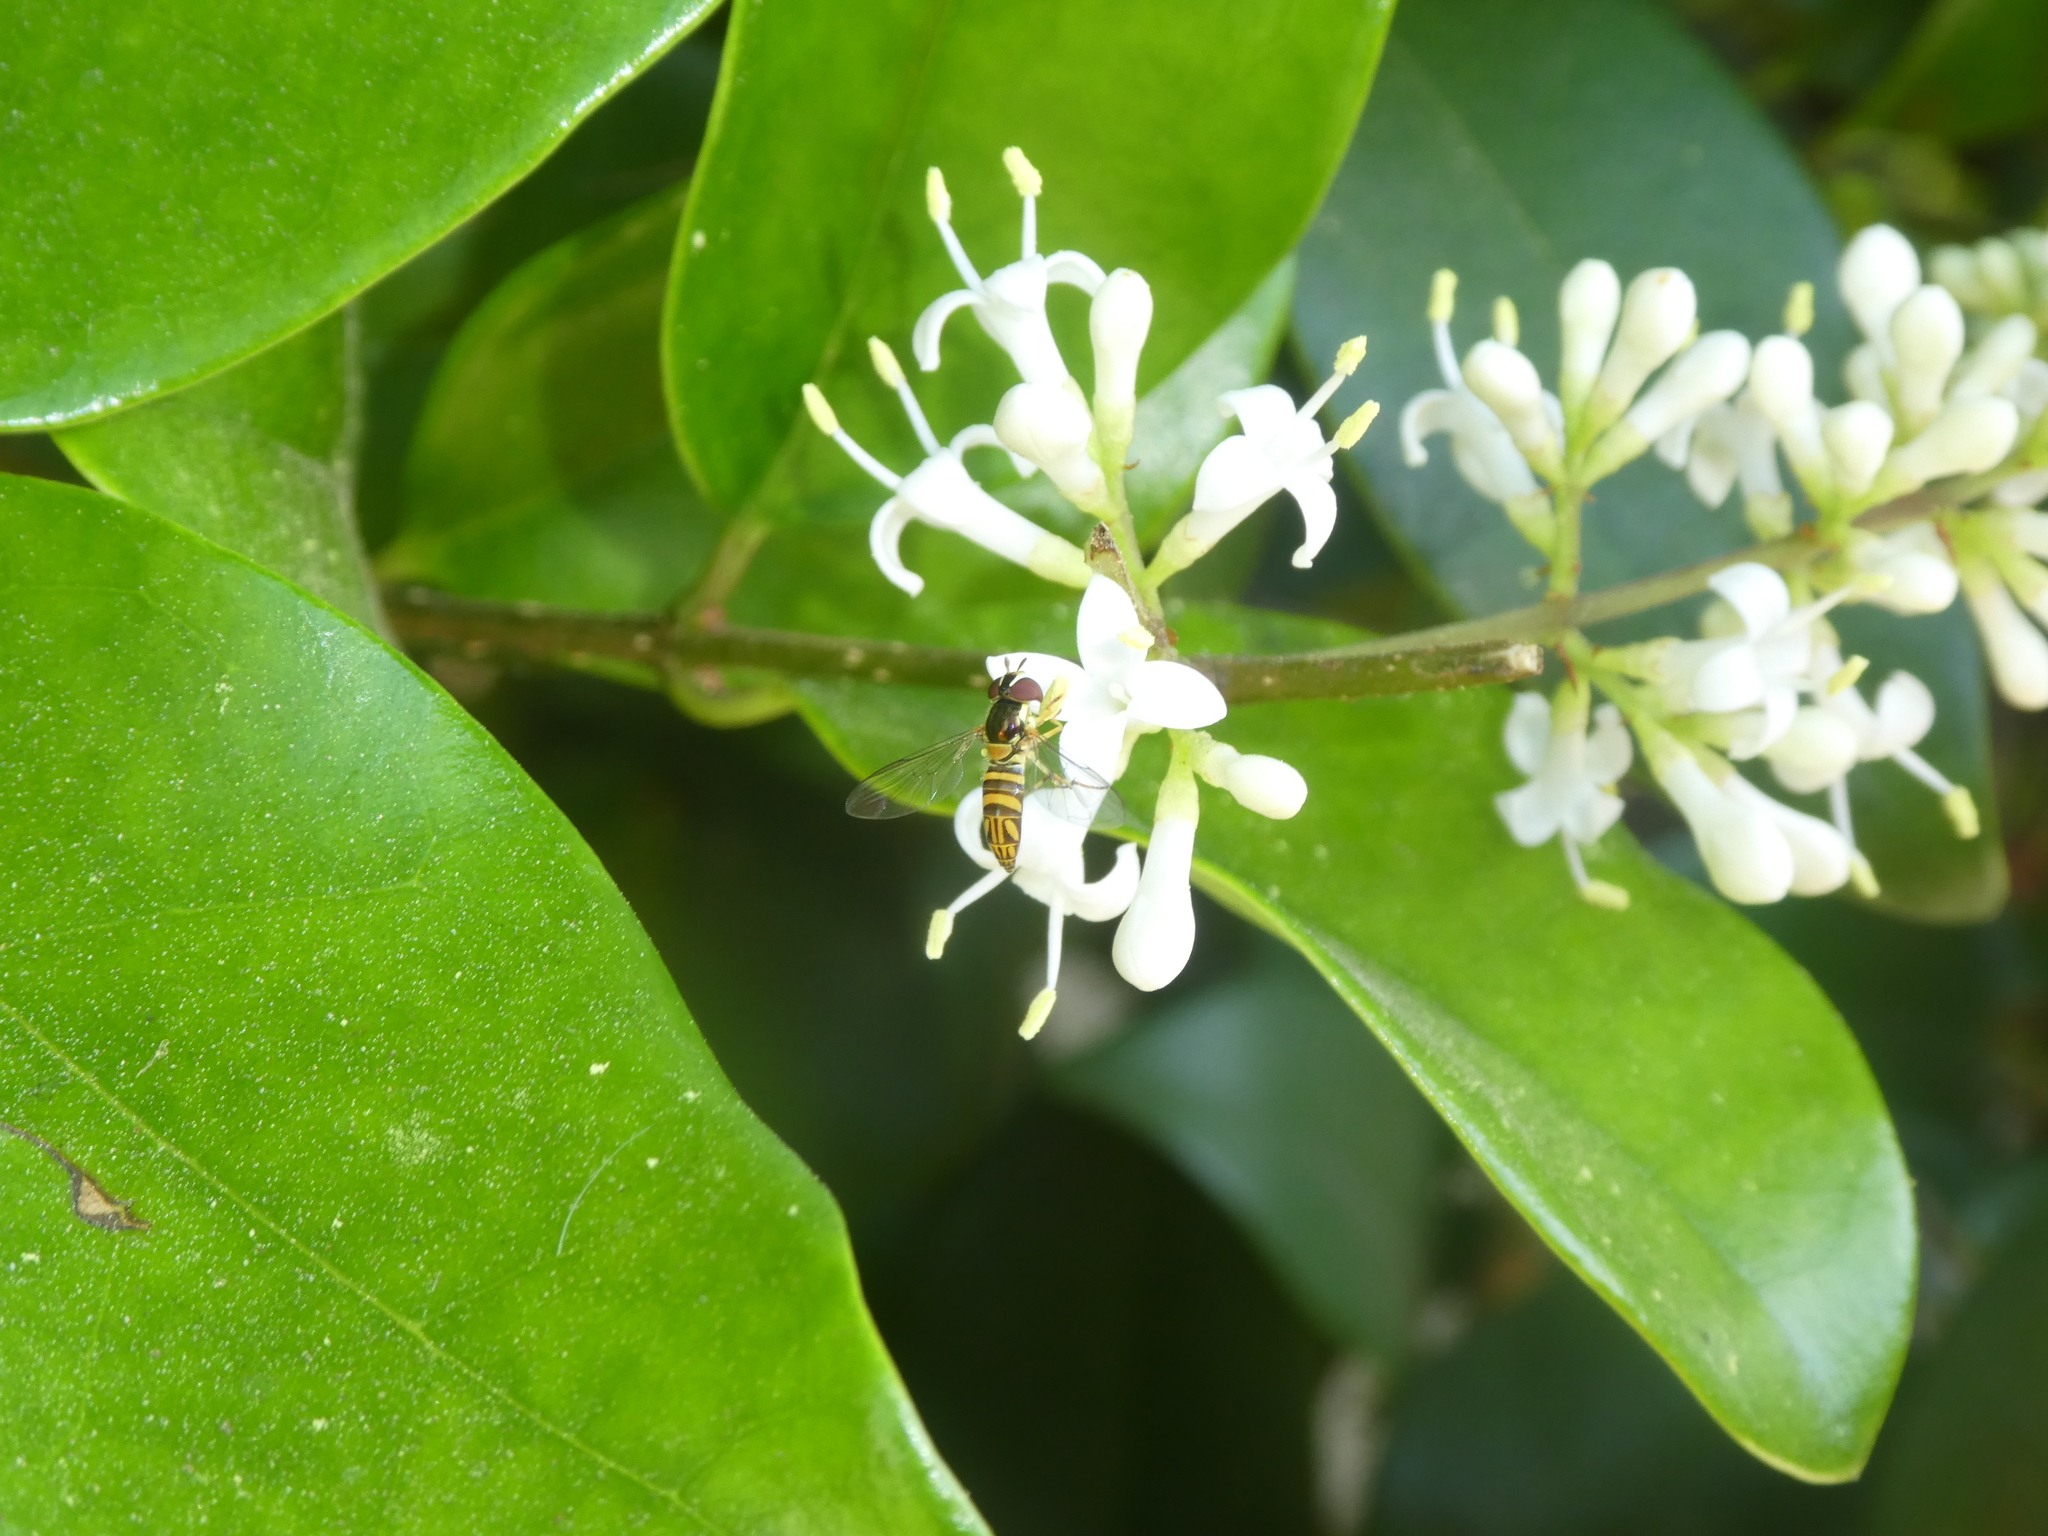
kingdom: Animalia
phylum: Arthropoda
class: Insecta
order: Diptera
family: Syrphidae
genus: Allograpta
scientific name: Allograpta obliqua
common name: Common oblique syrphid
